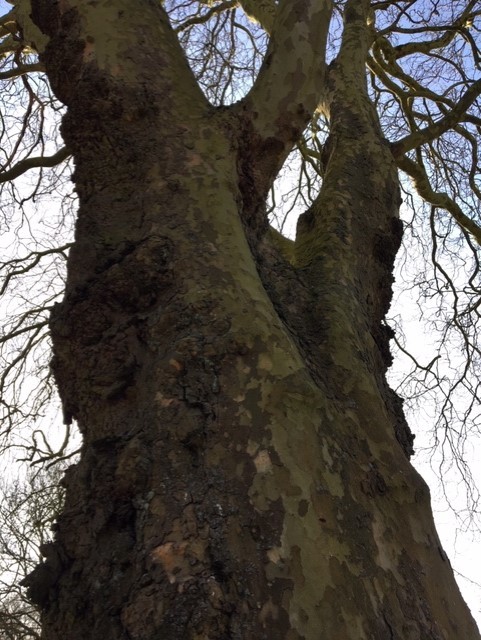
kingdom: Plantae
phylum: Tracheophyta
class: Magnoliopsida
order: Proteales
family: Platanaceae
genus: Platanus
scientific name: Platanus hispanica
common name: London plane
